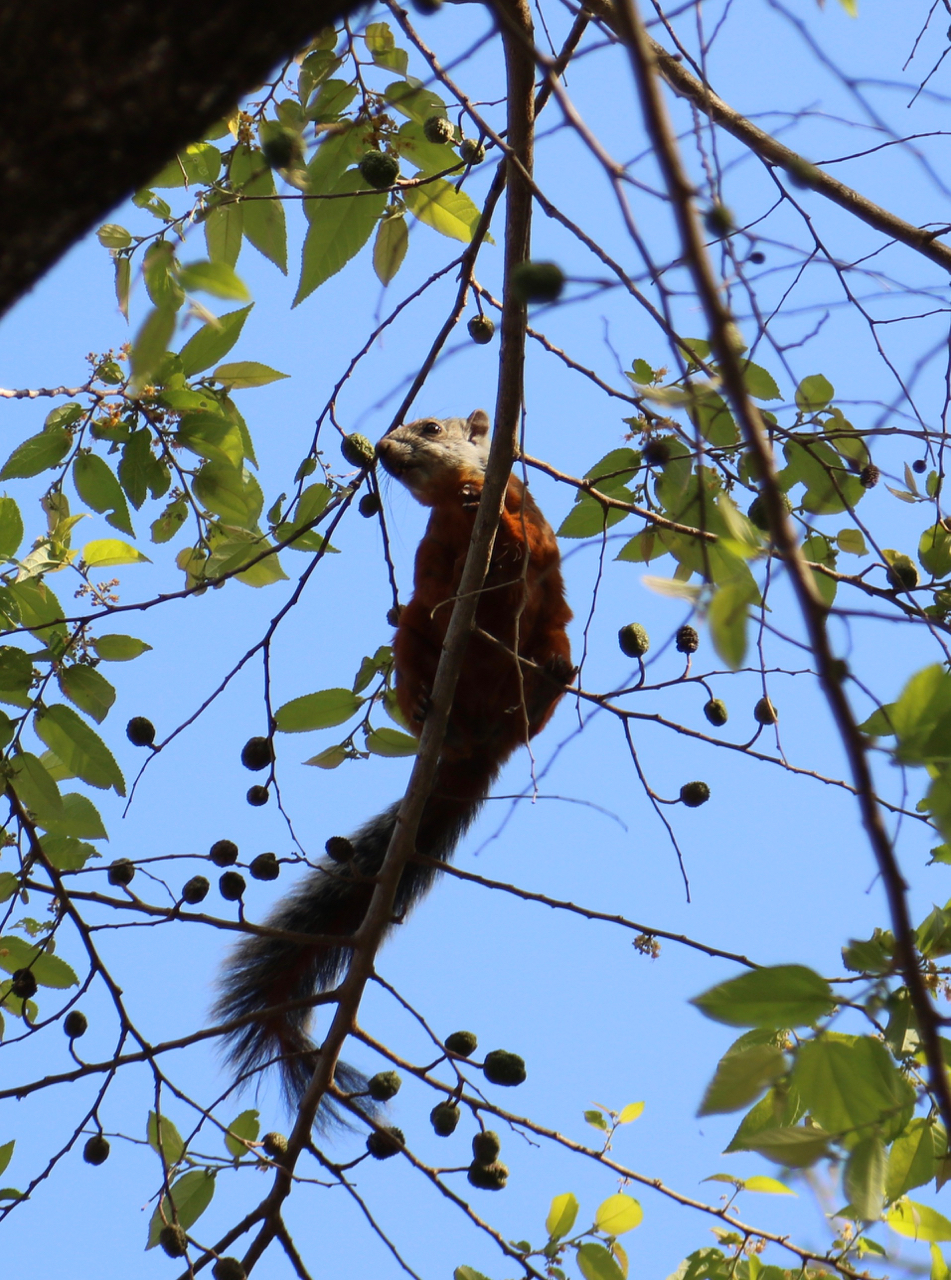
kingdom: Animalia
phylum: Chordata
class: Mammalia
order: Rodentia
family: Sciuridae
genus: Sciurus
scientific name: Sciurus variegatoides
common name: Variegated squirrel
